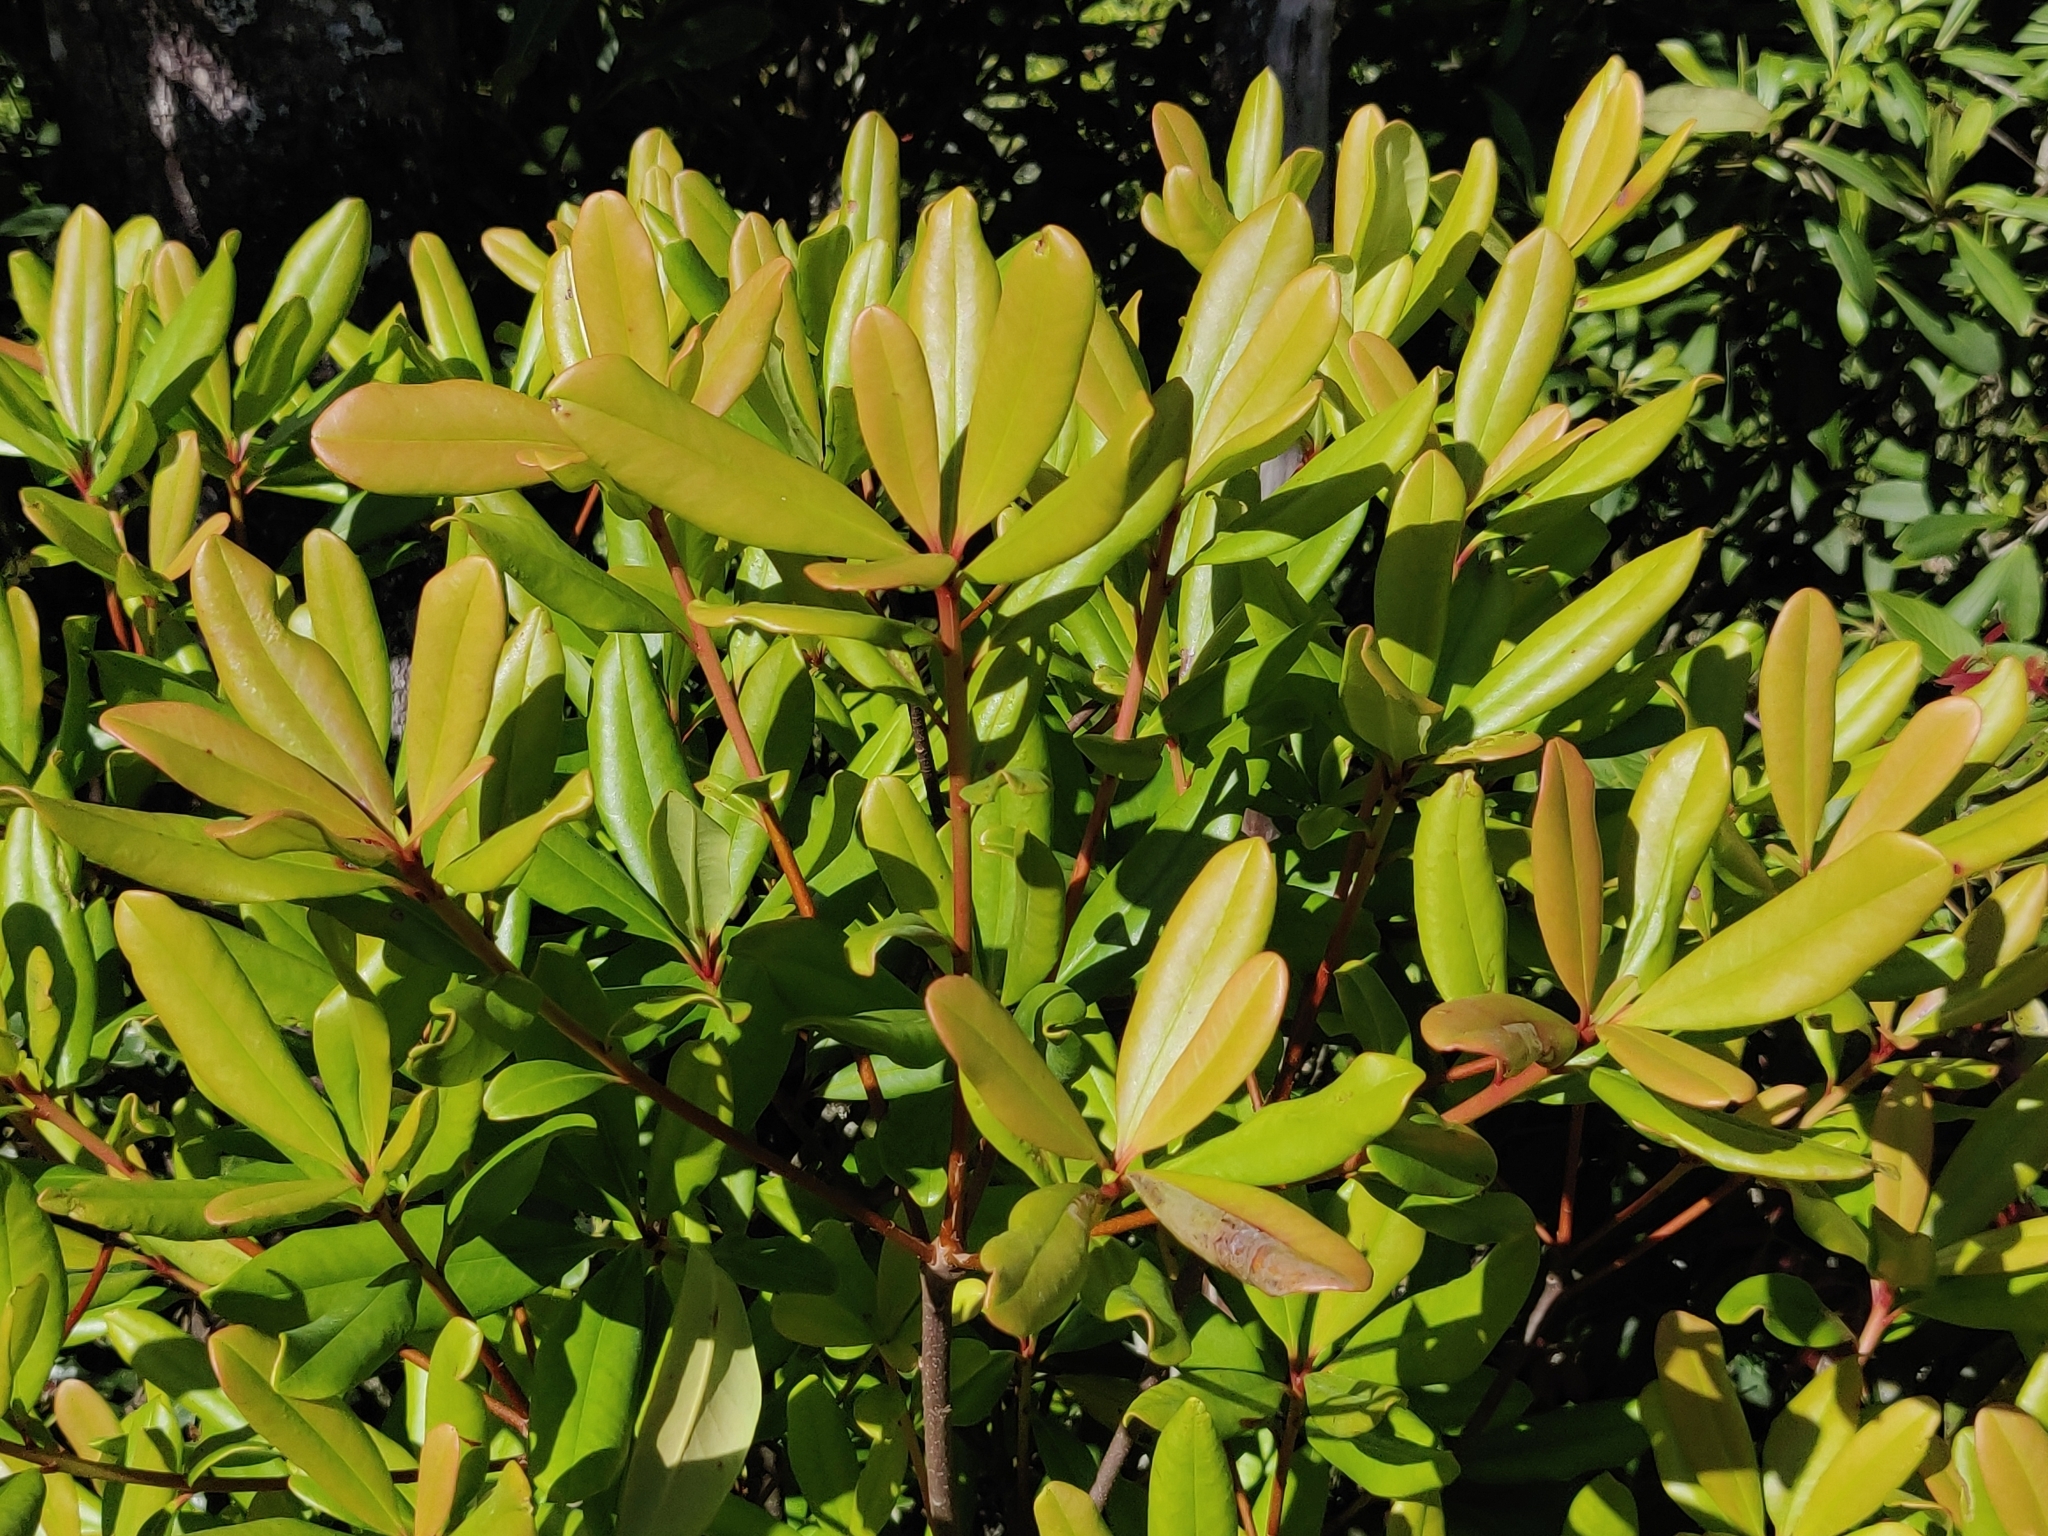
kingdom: Plantae
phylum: Tracheophyta
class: Magnoliopsida
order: Ericales
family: Pentaphylacaceae
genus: Ternstroemia
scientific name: Ternstroemia gymnanthera
